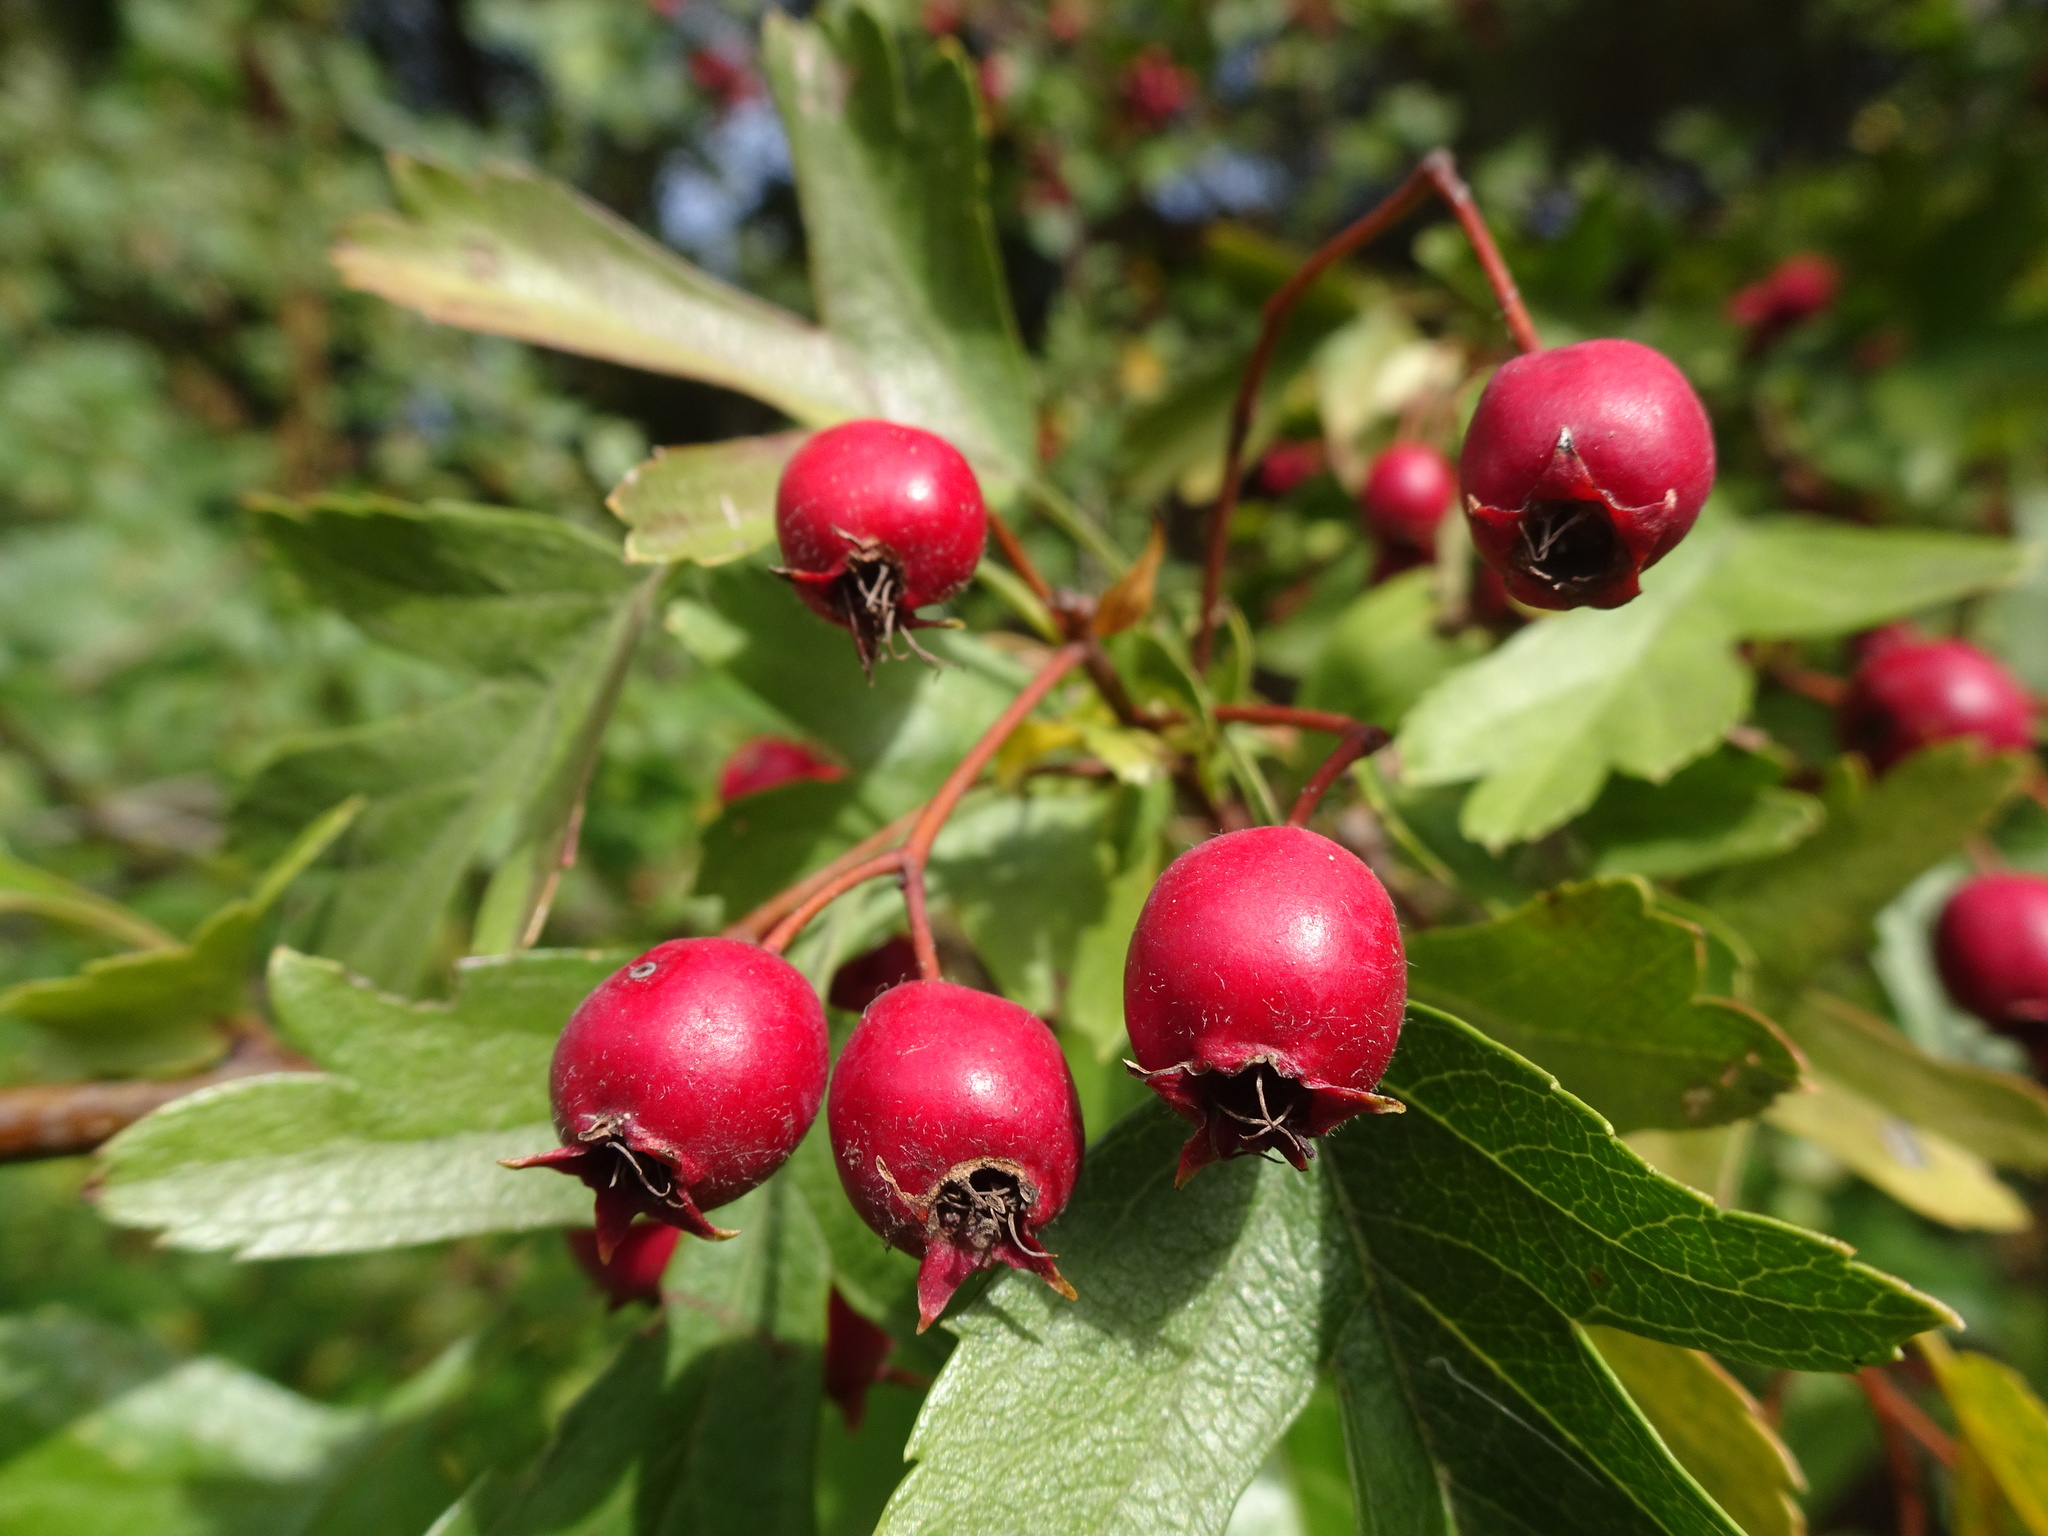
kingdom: Plantae
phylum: Tracheophyta
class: Magnoliopsida
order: Rosales
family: Rosaceae
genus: Crataegus
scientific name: Crataegus monogyna
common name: Hawthorn
